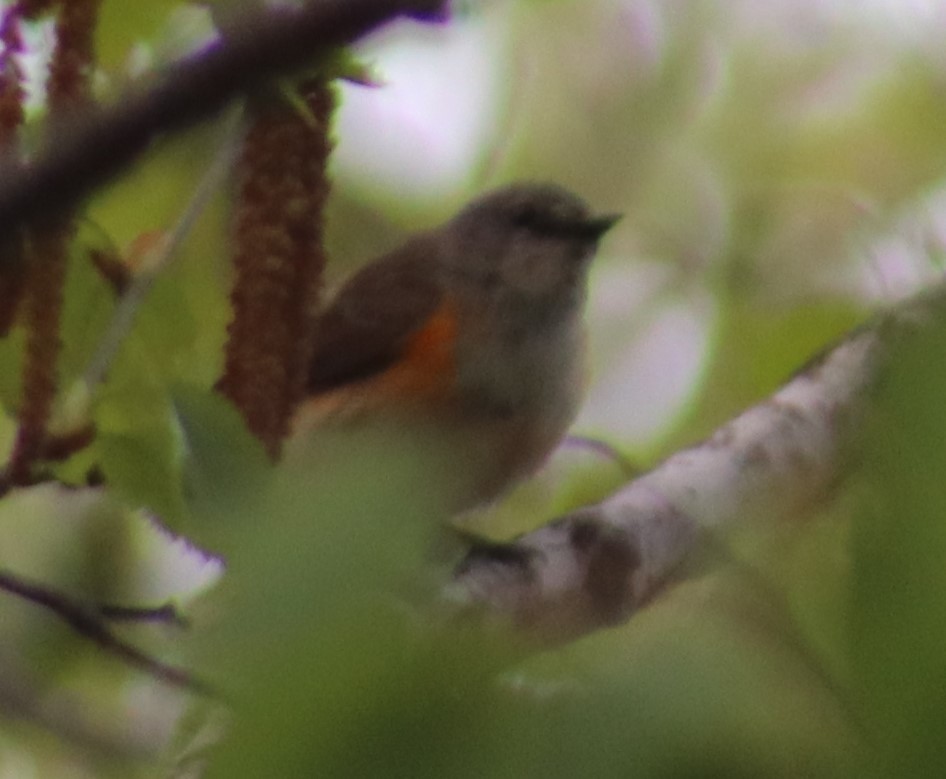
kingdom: Animalia
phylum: Chordata
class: Aves
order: Passeriformes
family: Parulidae
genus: Setophaga
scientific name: Setophaga ruticilla
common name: American redstart
